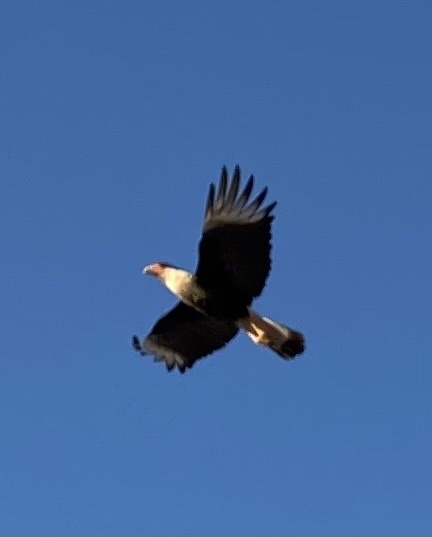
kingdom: Animalia
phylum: Chordata
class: Aves
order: Falconiformes
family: Falconidae
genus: Caracara
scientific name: Caracara plancus
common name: Southern caracara
